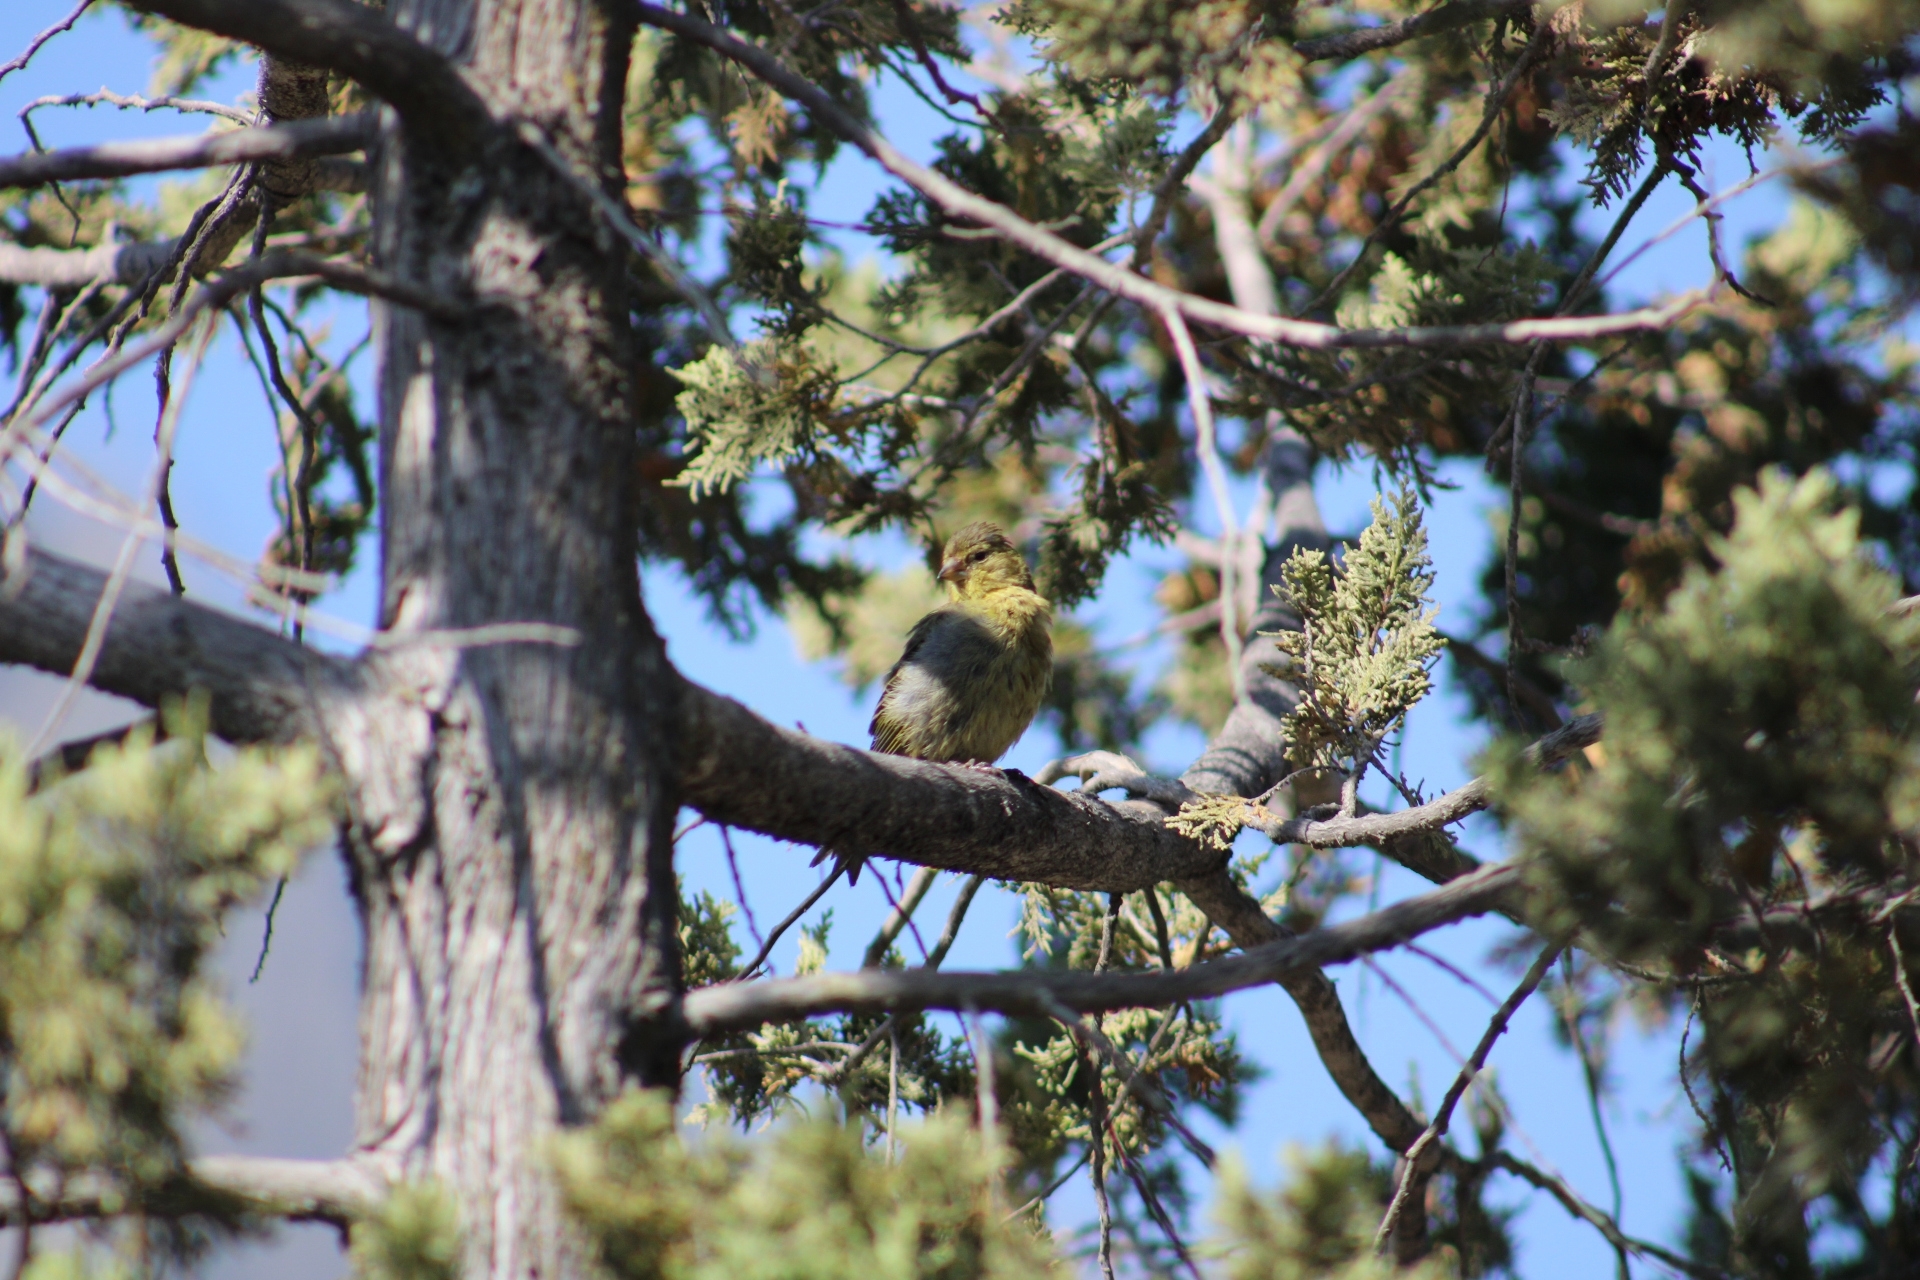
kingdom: Animalia
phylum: Chordata
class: Aves
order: Passeriformes
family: Fringillidae
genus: Spinus
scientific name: Spinus barbatus
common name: Black-chinned siskin
